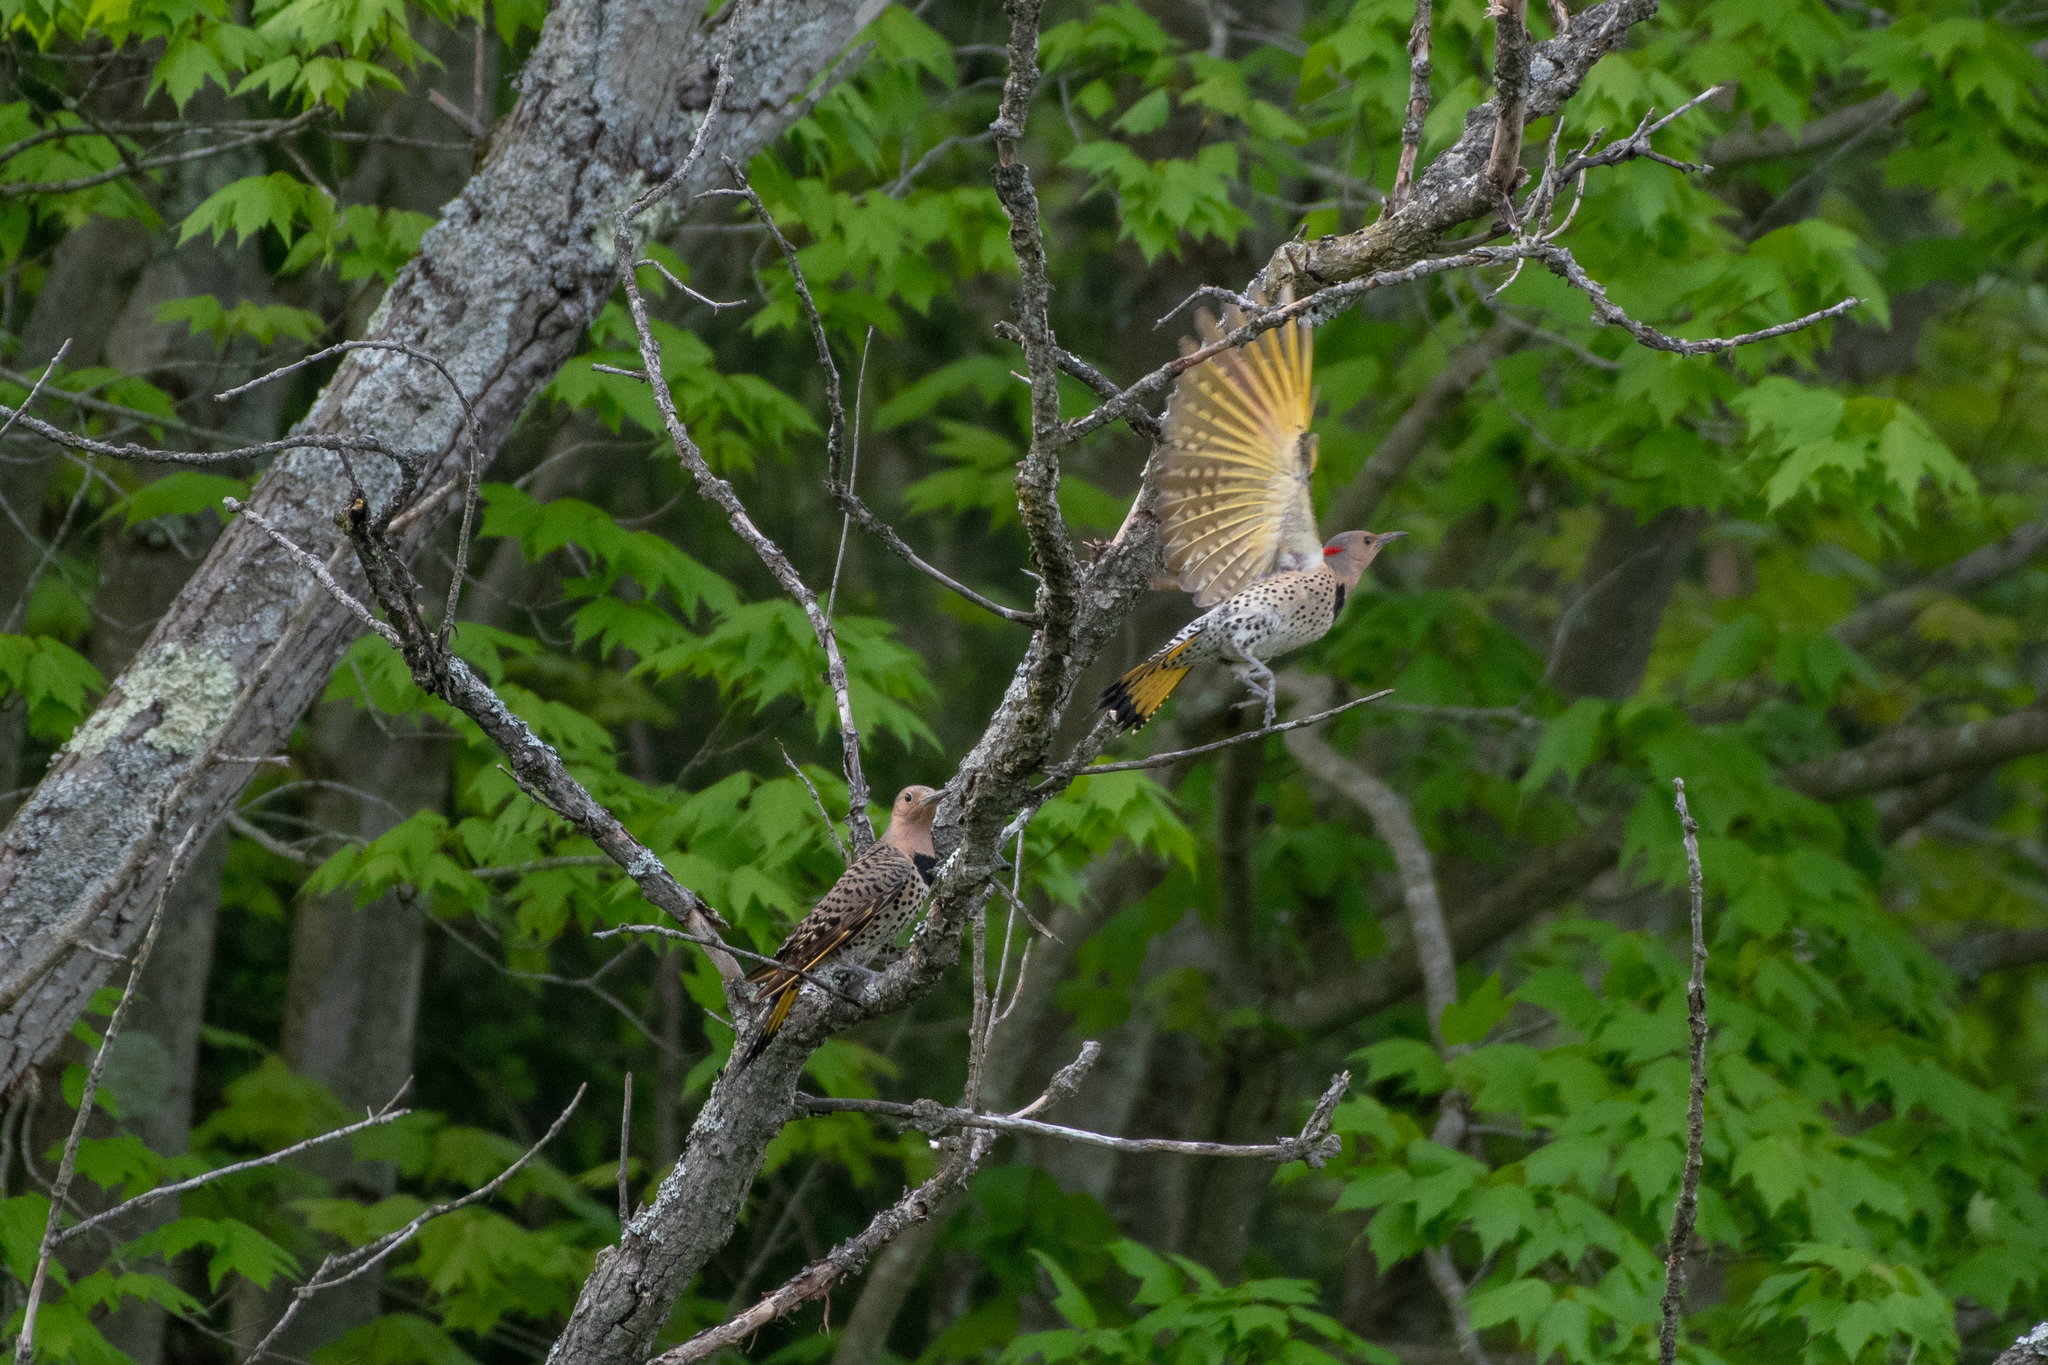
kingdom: Animalia
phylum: Chordata
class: Aves
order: Piciformes
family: Picidae
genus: Colaptes
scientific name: Colaptes auratus
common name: Northern flicker
